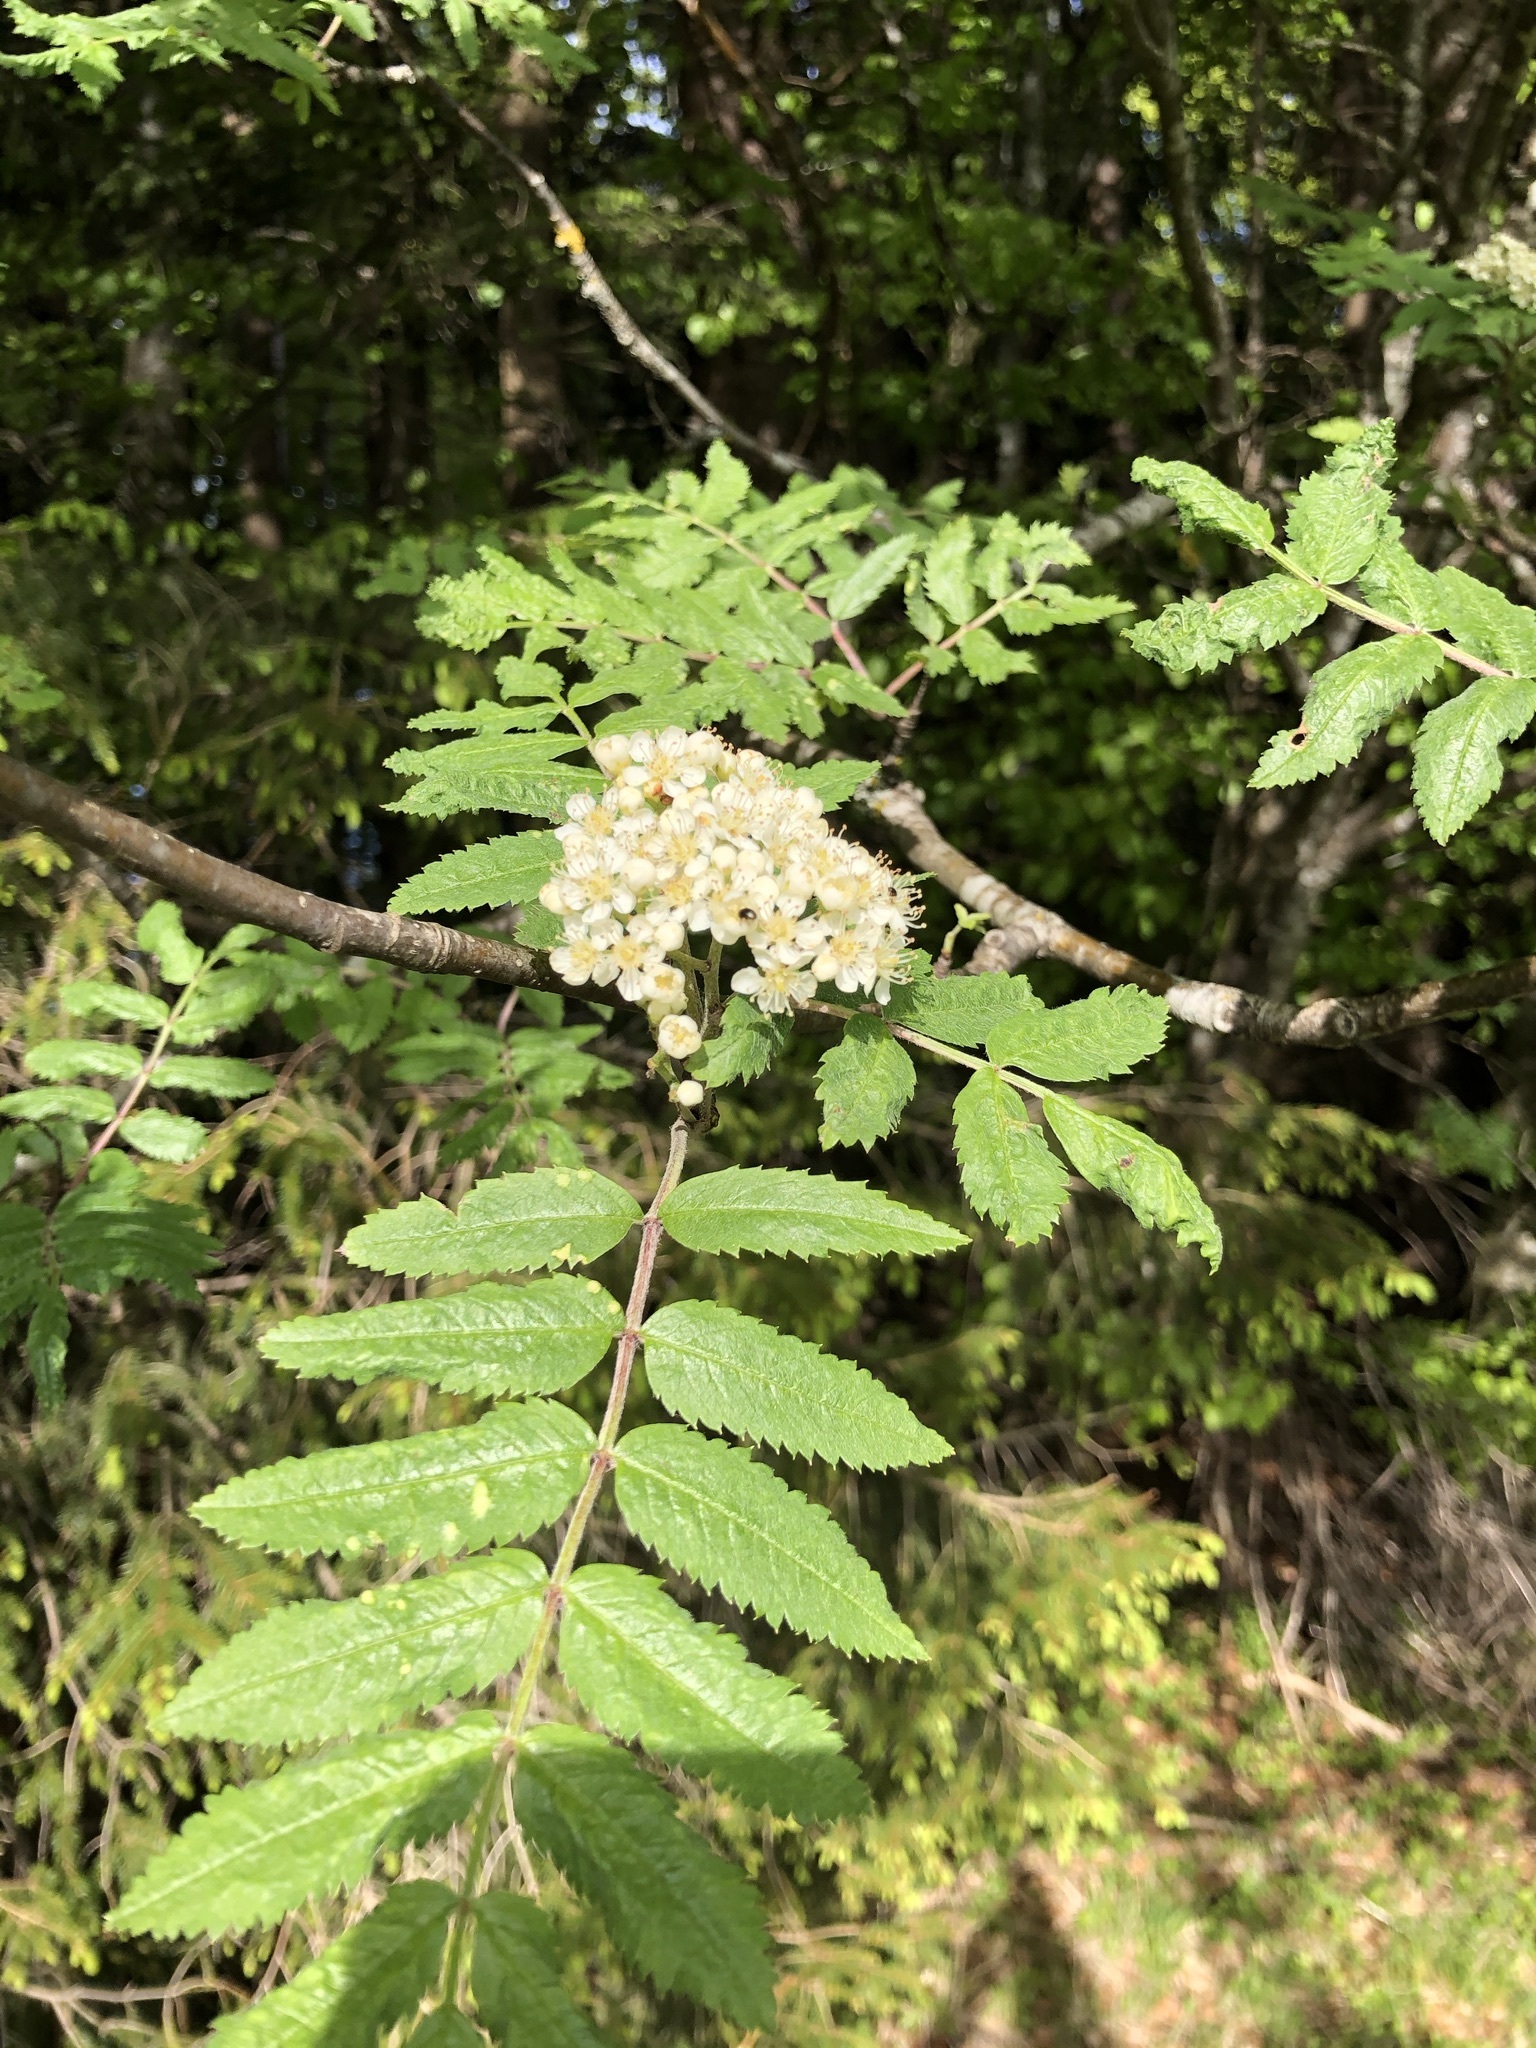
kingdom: Plantae
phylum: Tracheophyta
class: Magnoliopsida
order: Rosales
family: Rosaceae
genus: Sorbus
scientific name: Sorbus aucuparia
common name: Rowan
